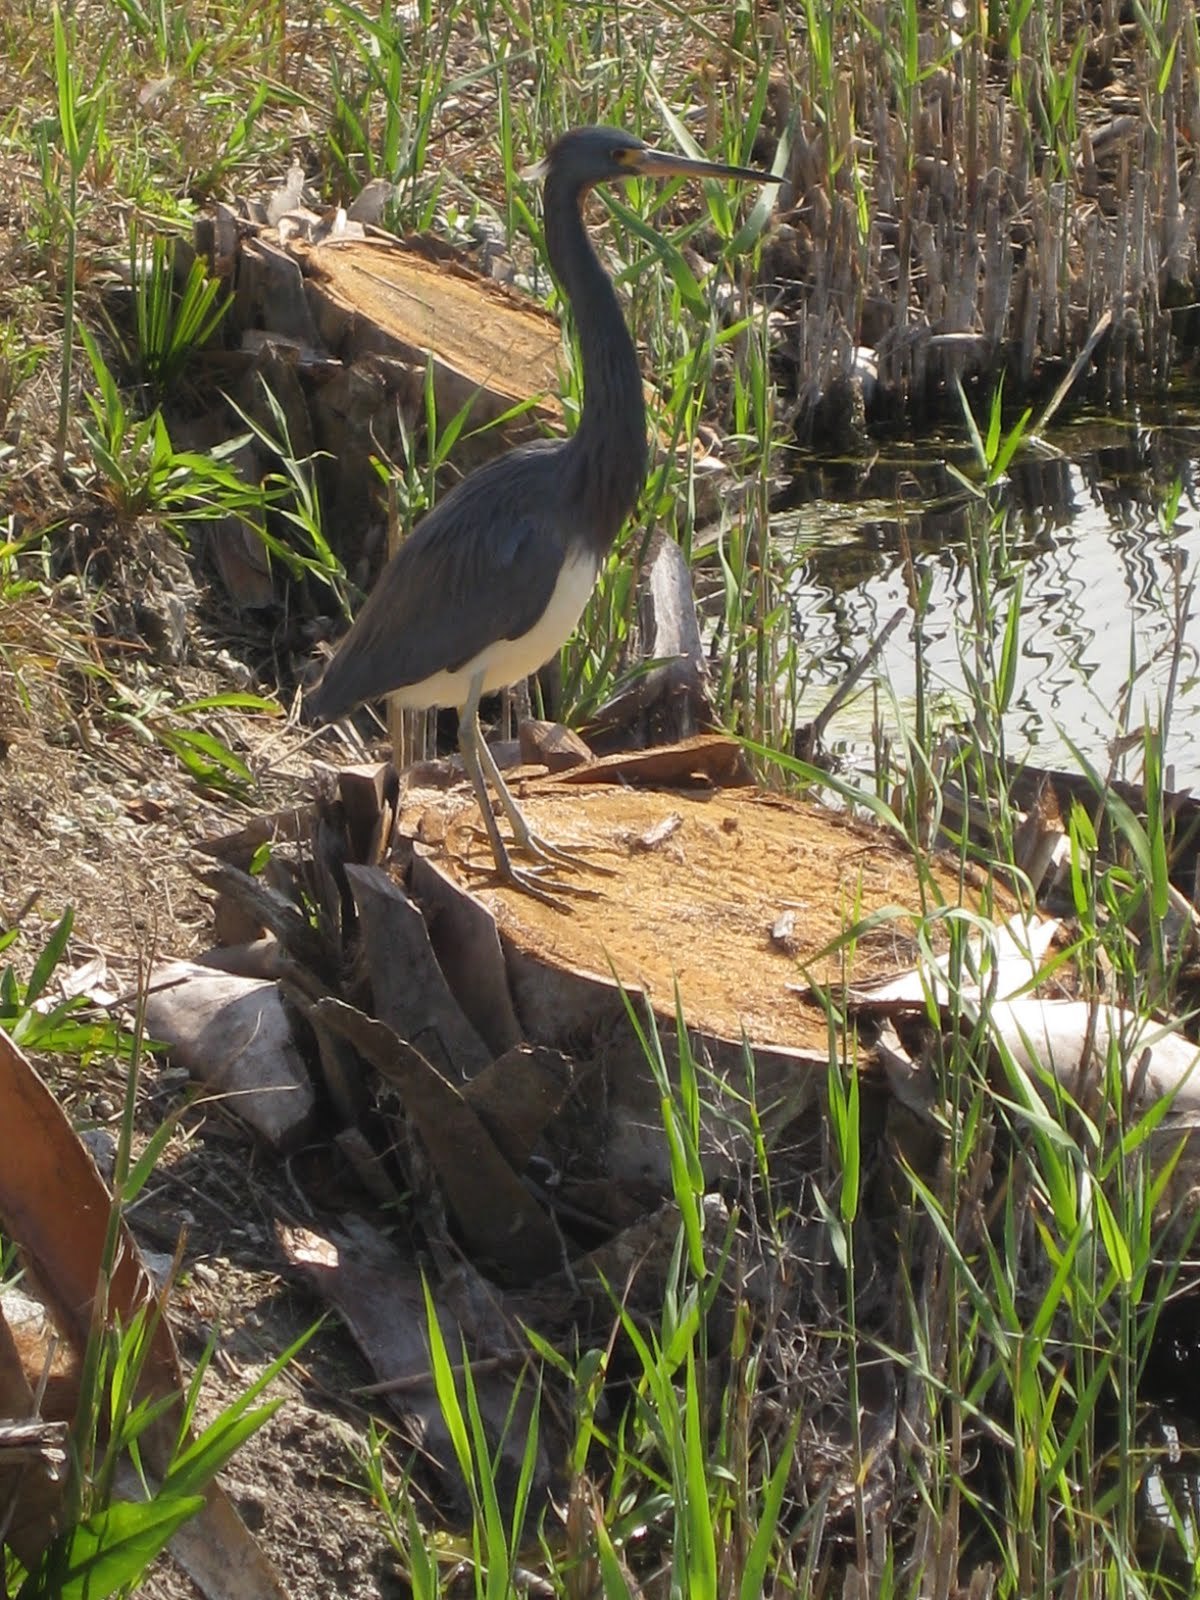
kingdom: Animalia
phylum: Chordata
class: Aves
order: Pelecaniformes
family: Ardeidae
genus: Egretta
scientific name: Egretta tricolor
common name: Tricolored heron
